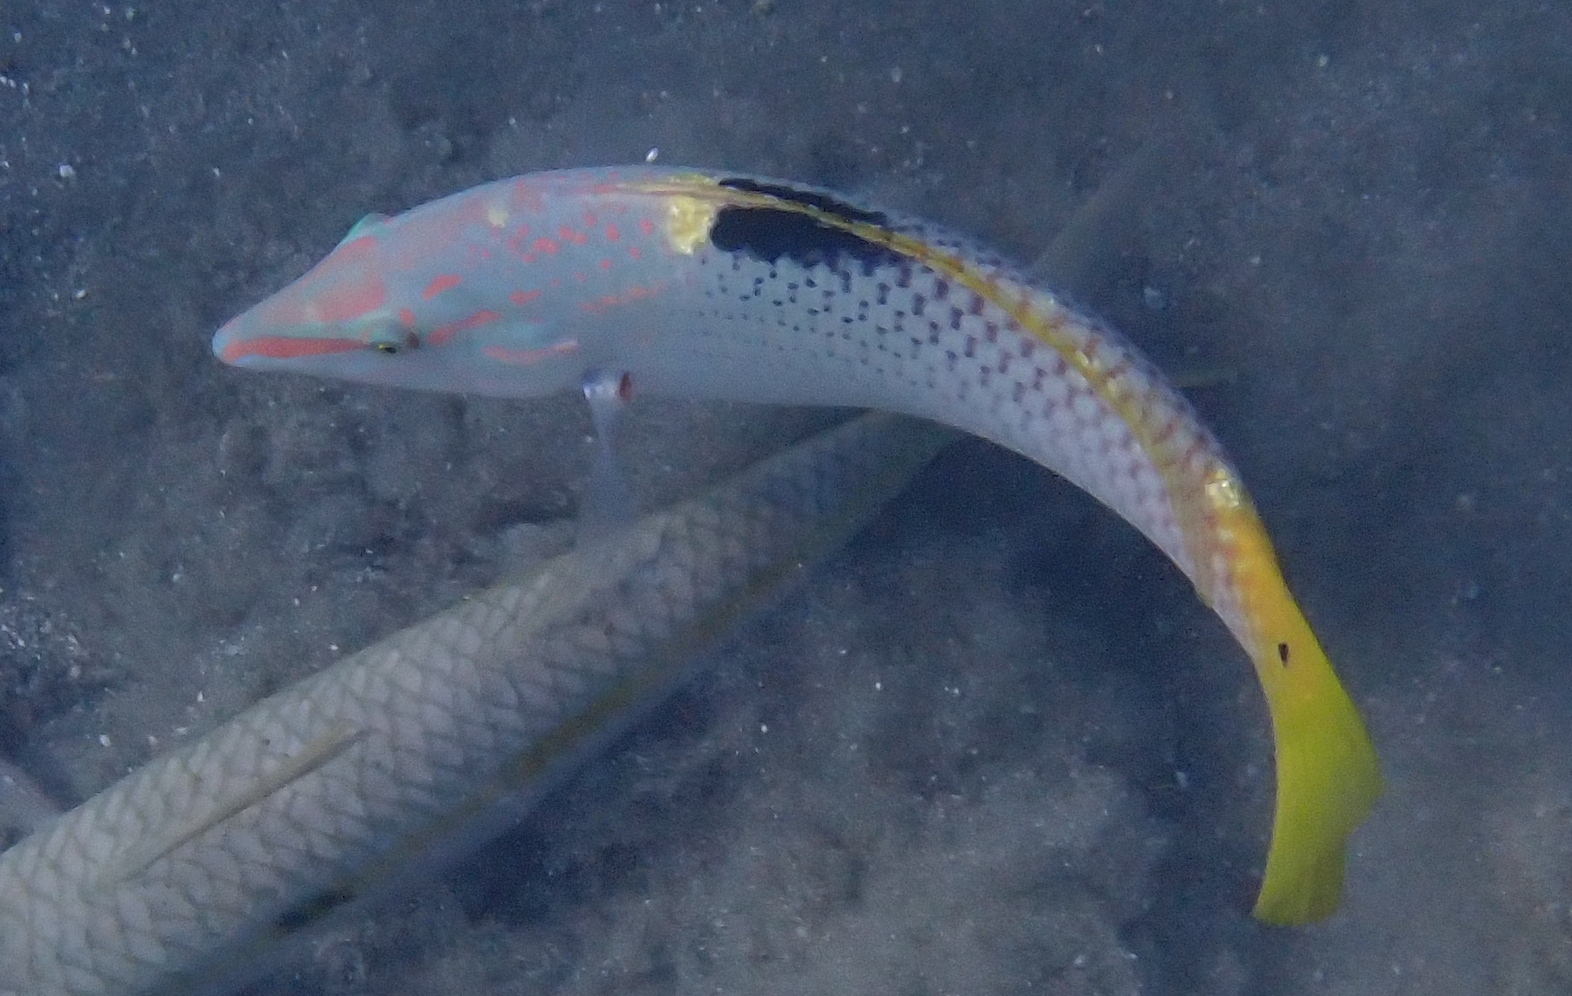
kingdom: Animalia
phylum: Chordata
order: Perciformes
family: Labridae
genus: Halichoeres
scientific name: Halichoeres hortulanus
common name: Checkerboard wrasse
